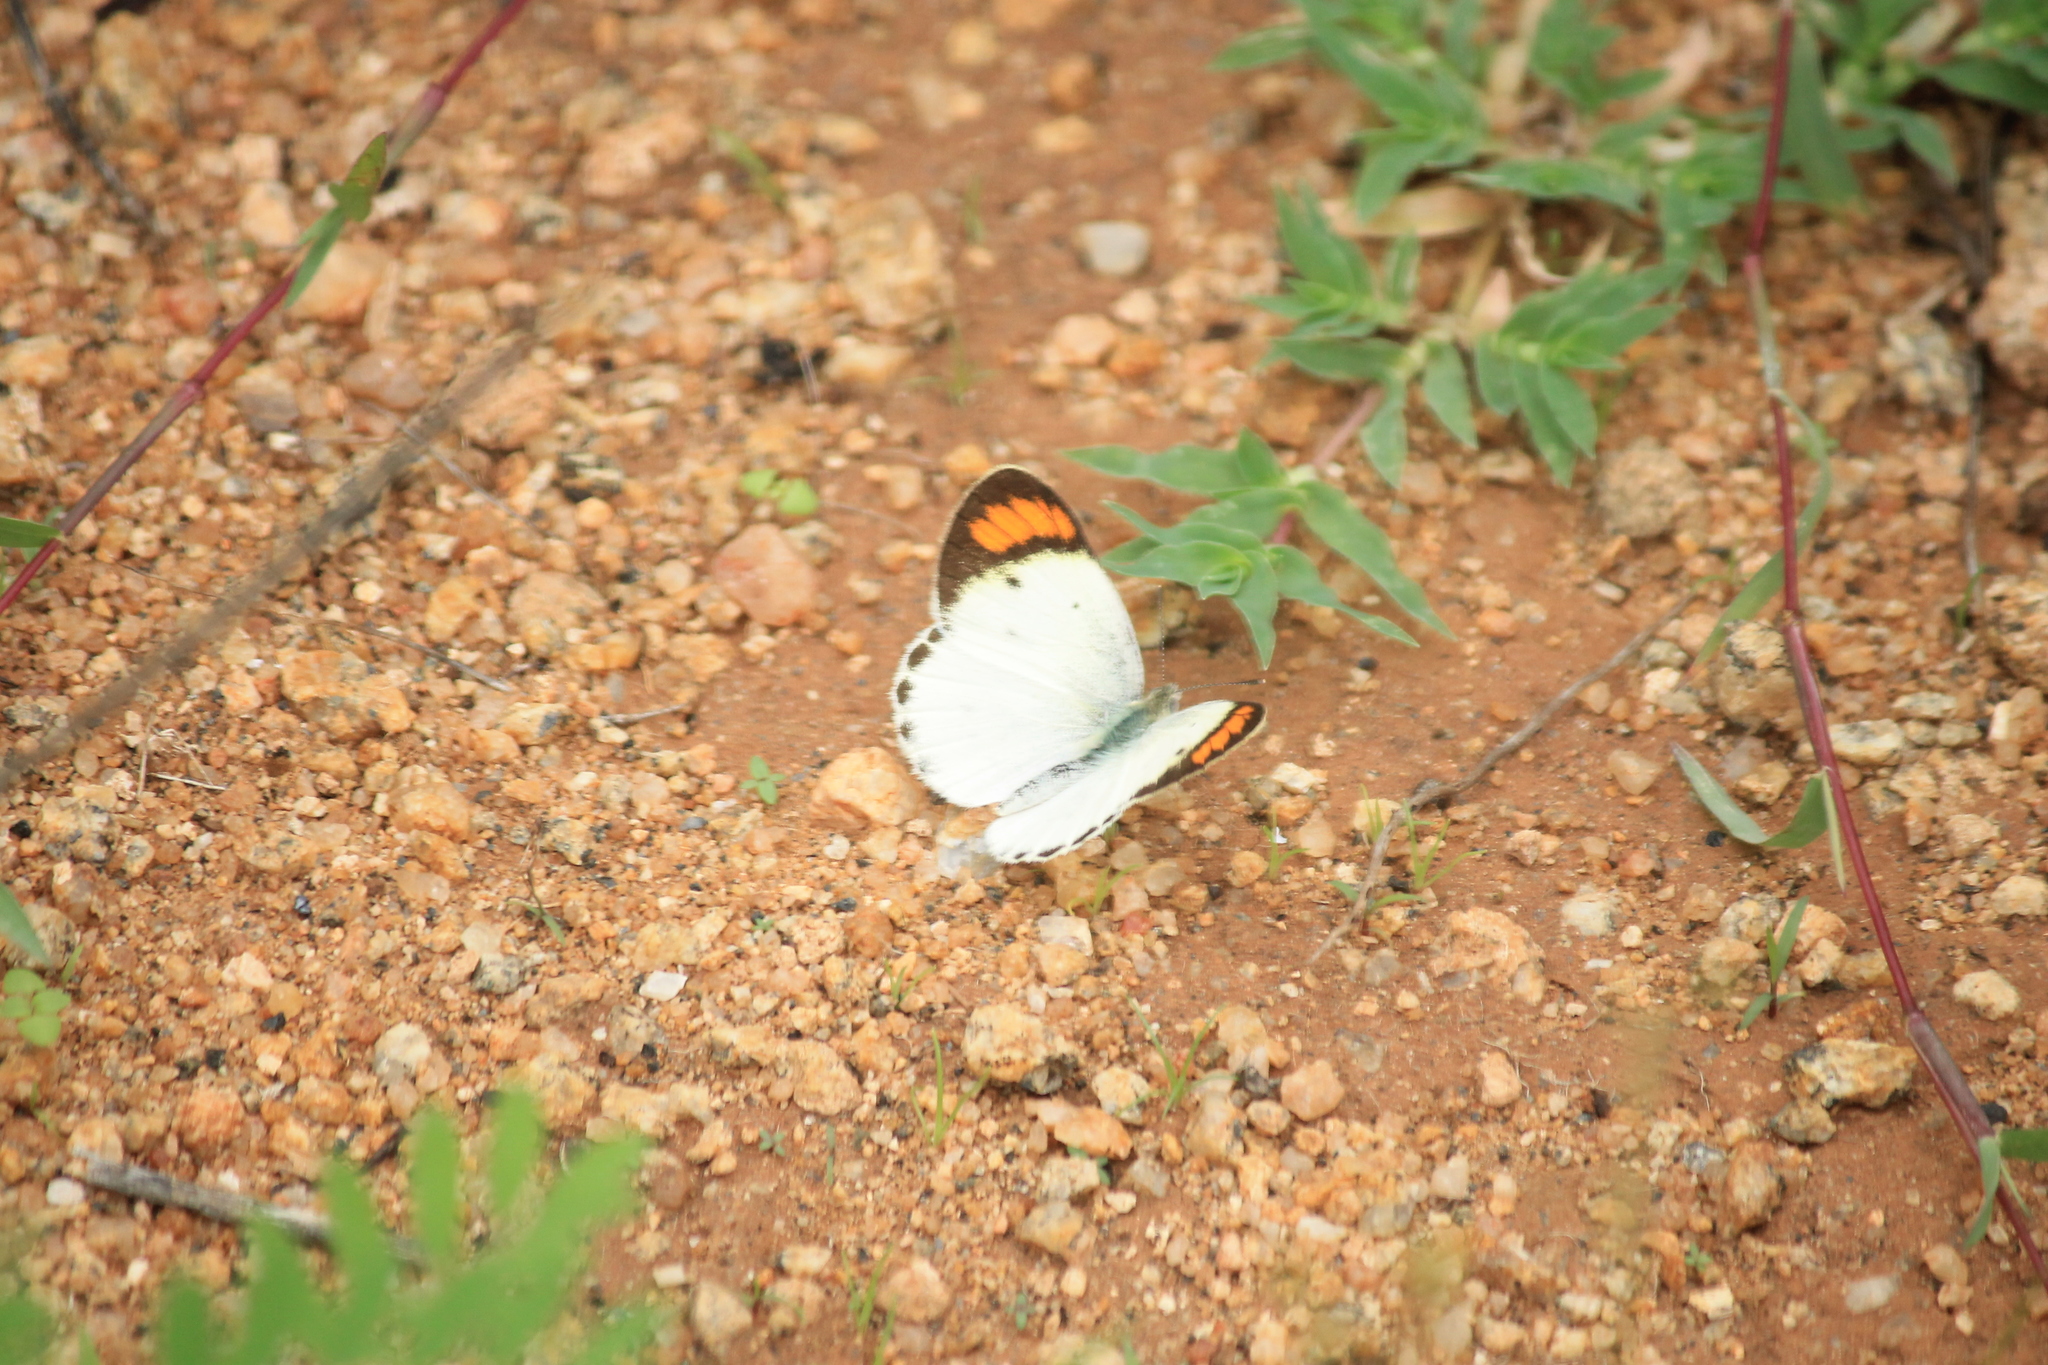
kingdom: Animalia
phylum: Arthropoda
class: Insecta
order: Lepidoptera
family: Pieridae
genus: Colotis
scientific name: Colotis etrida
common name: Little orange tip
